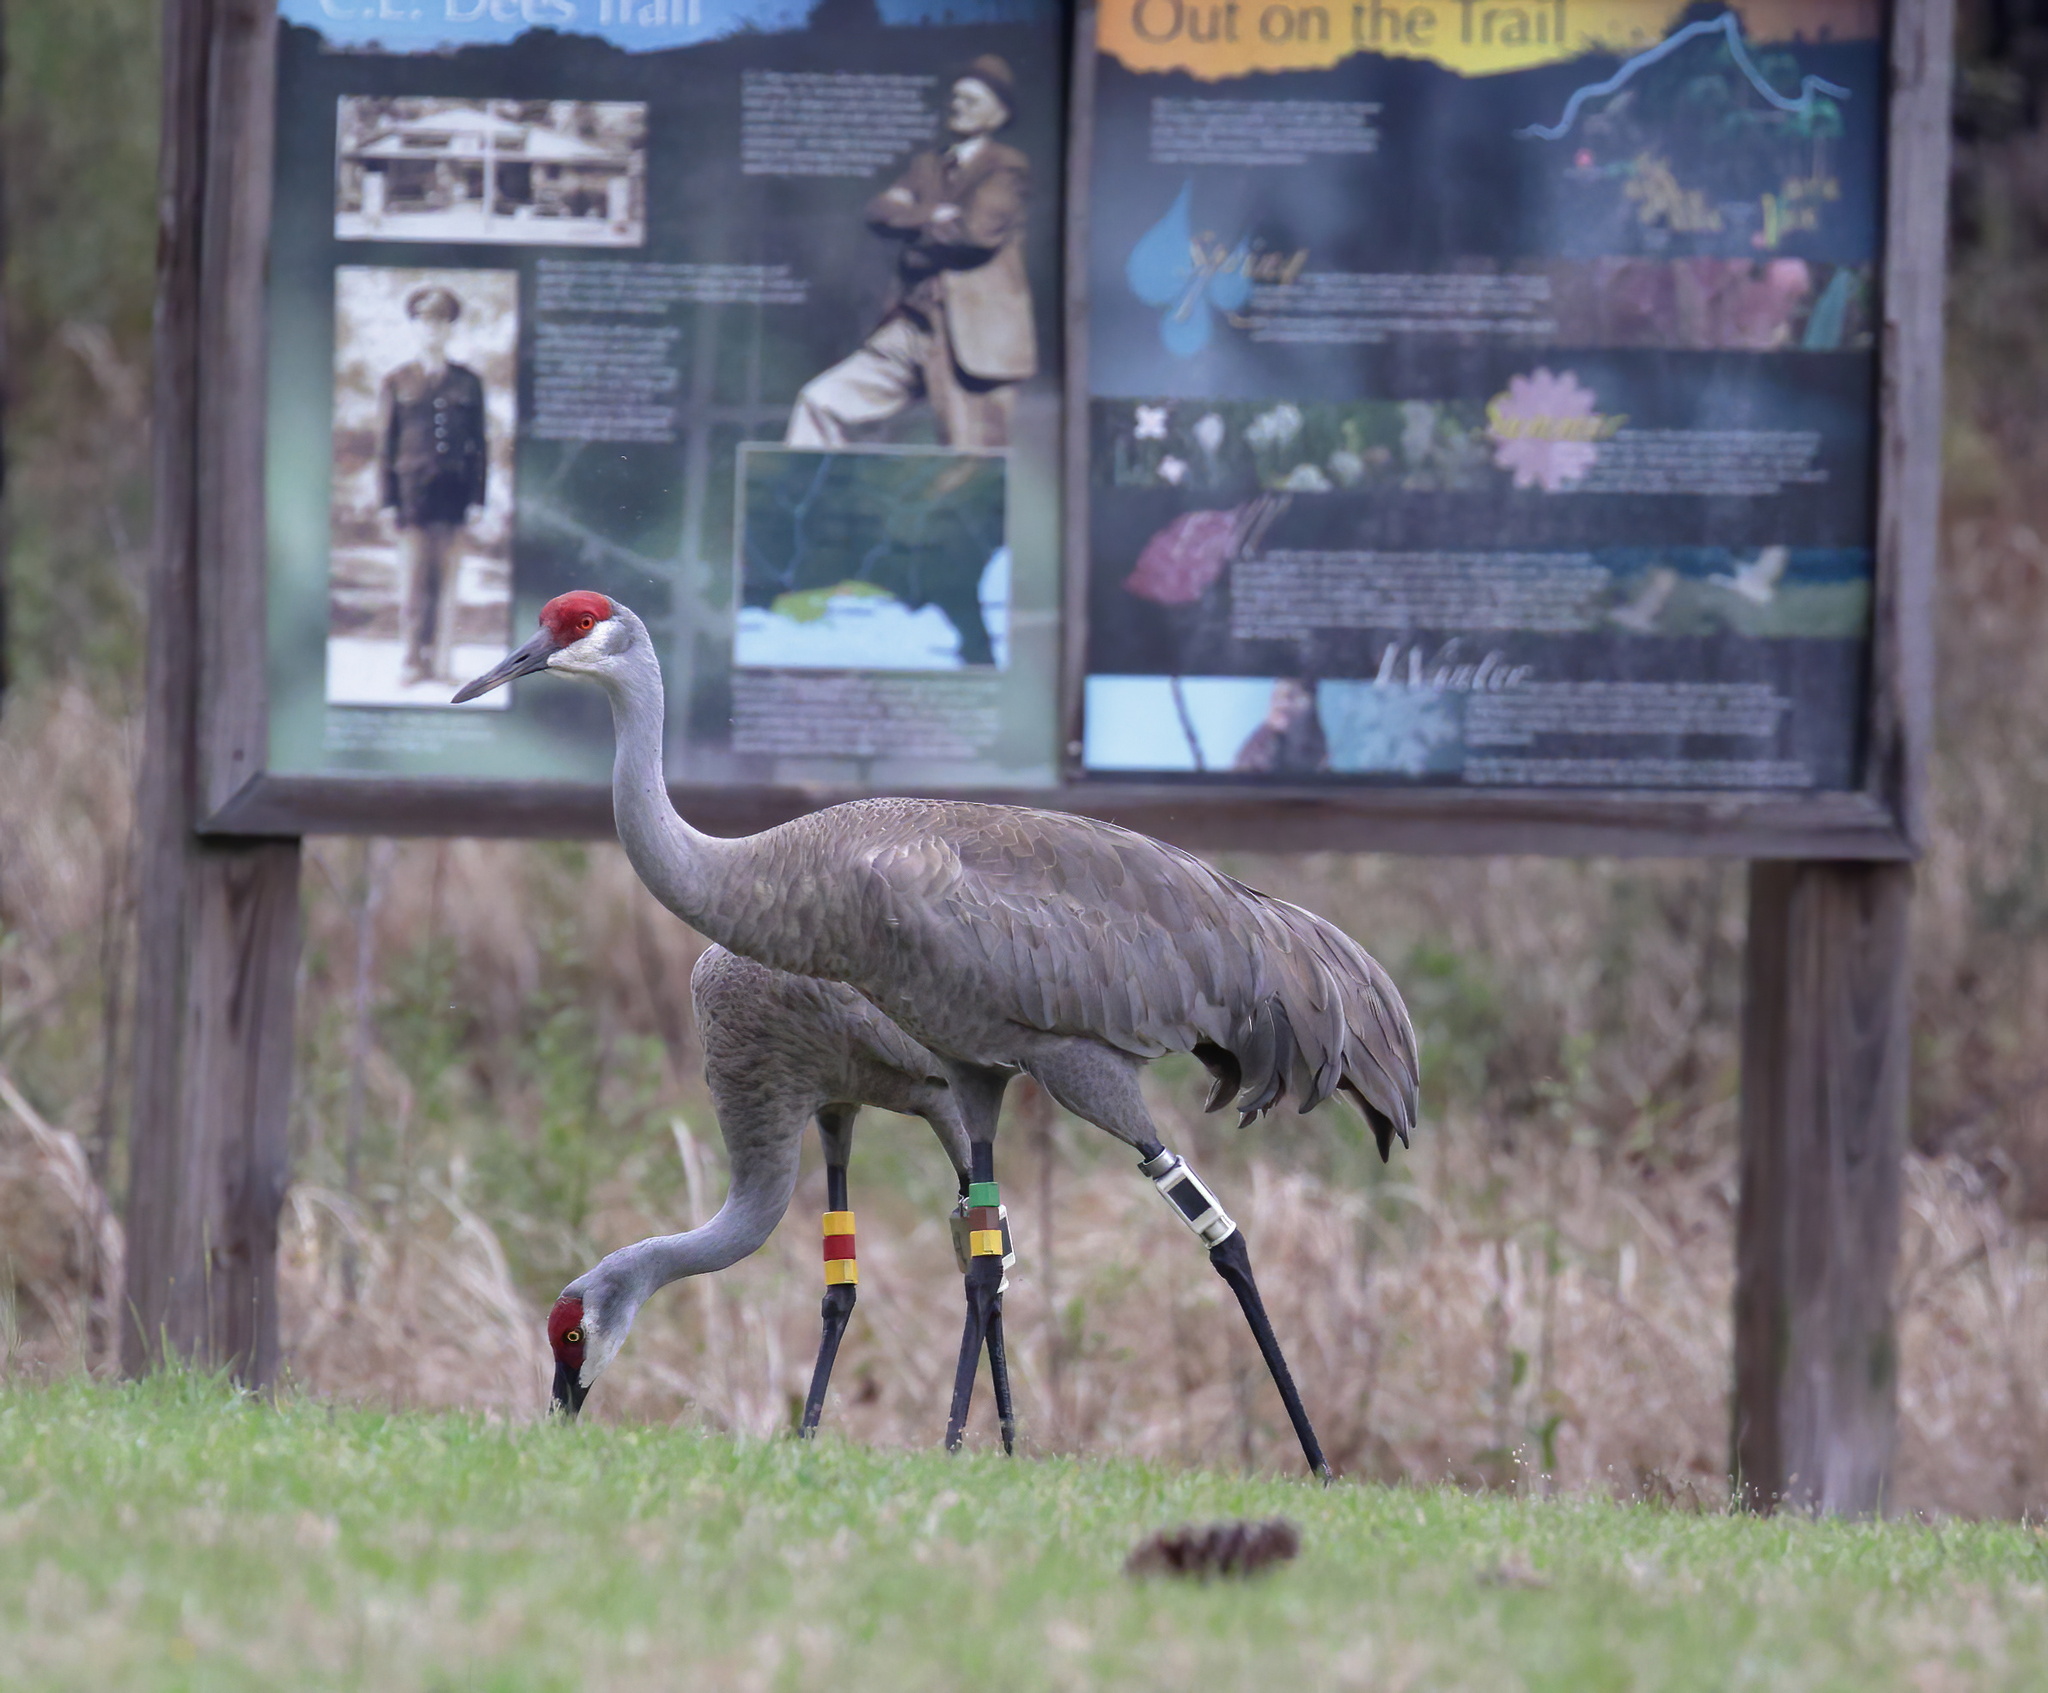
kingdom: Animalia
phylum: Chordata
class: Aves
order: Gruiformes
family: Gruidae
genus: Grus
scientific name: Grus canadensis
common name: Sandhill crane
